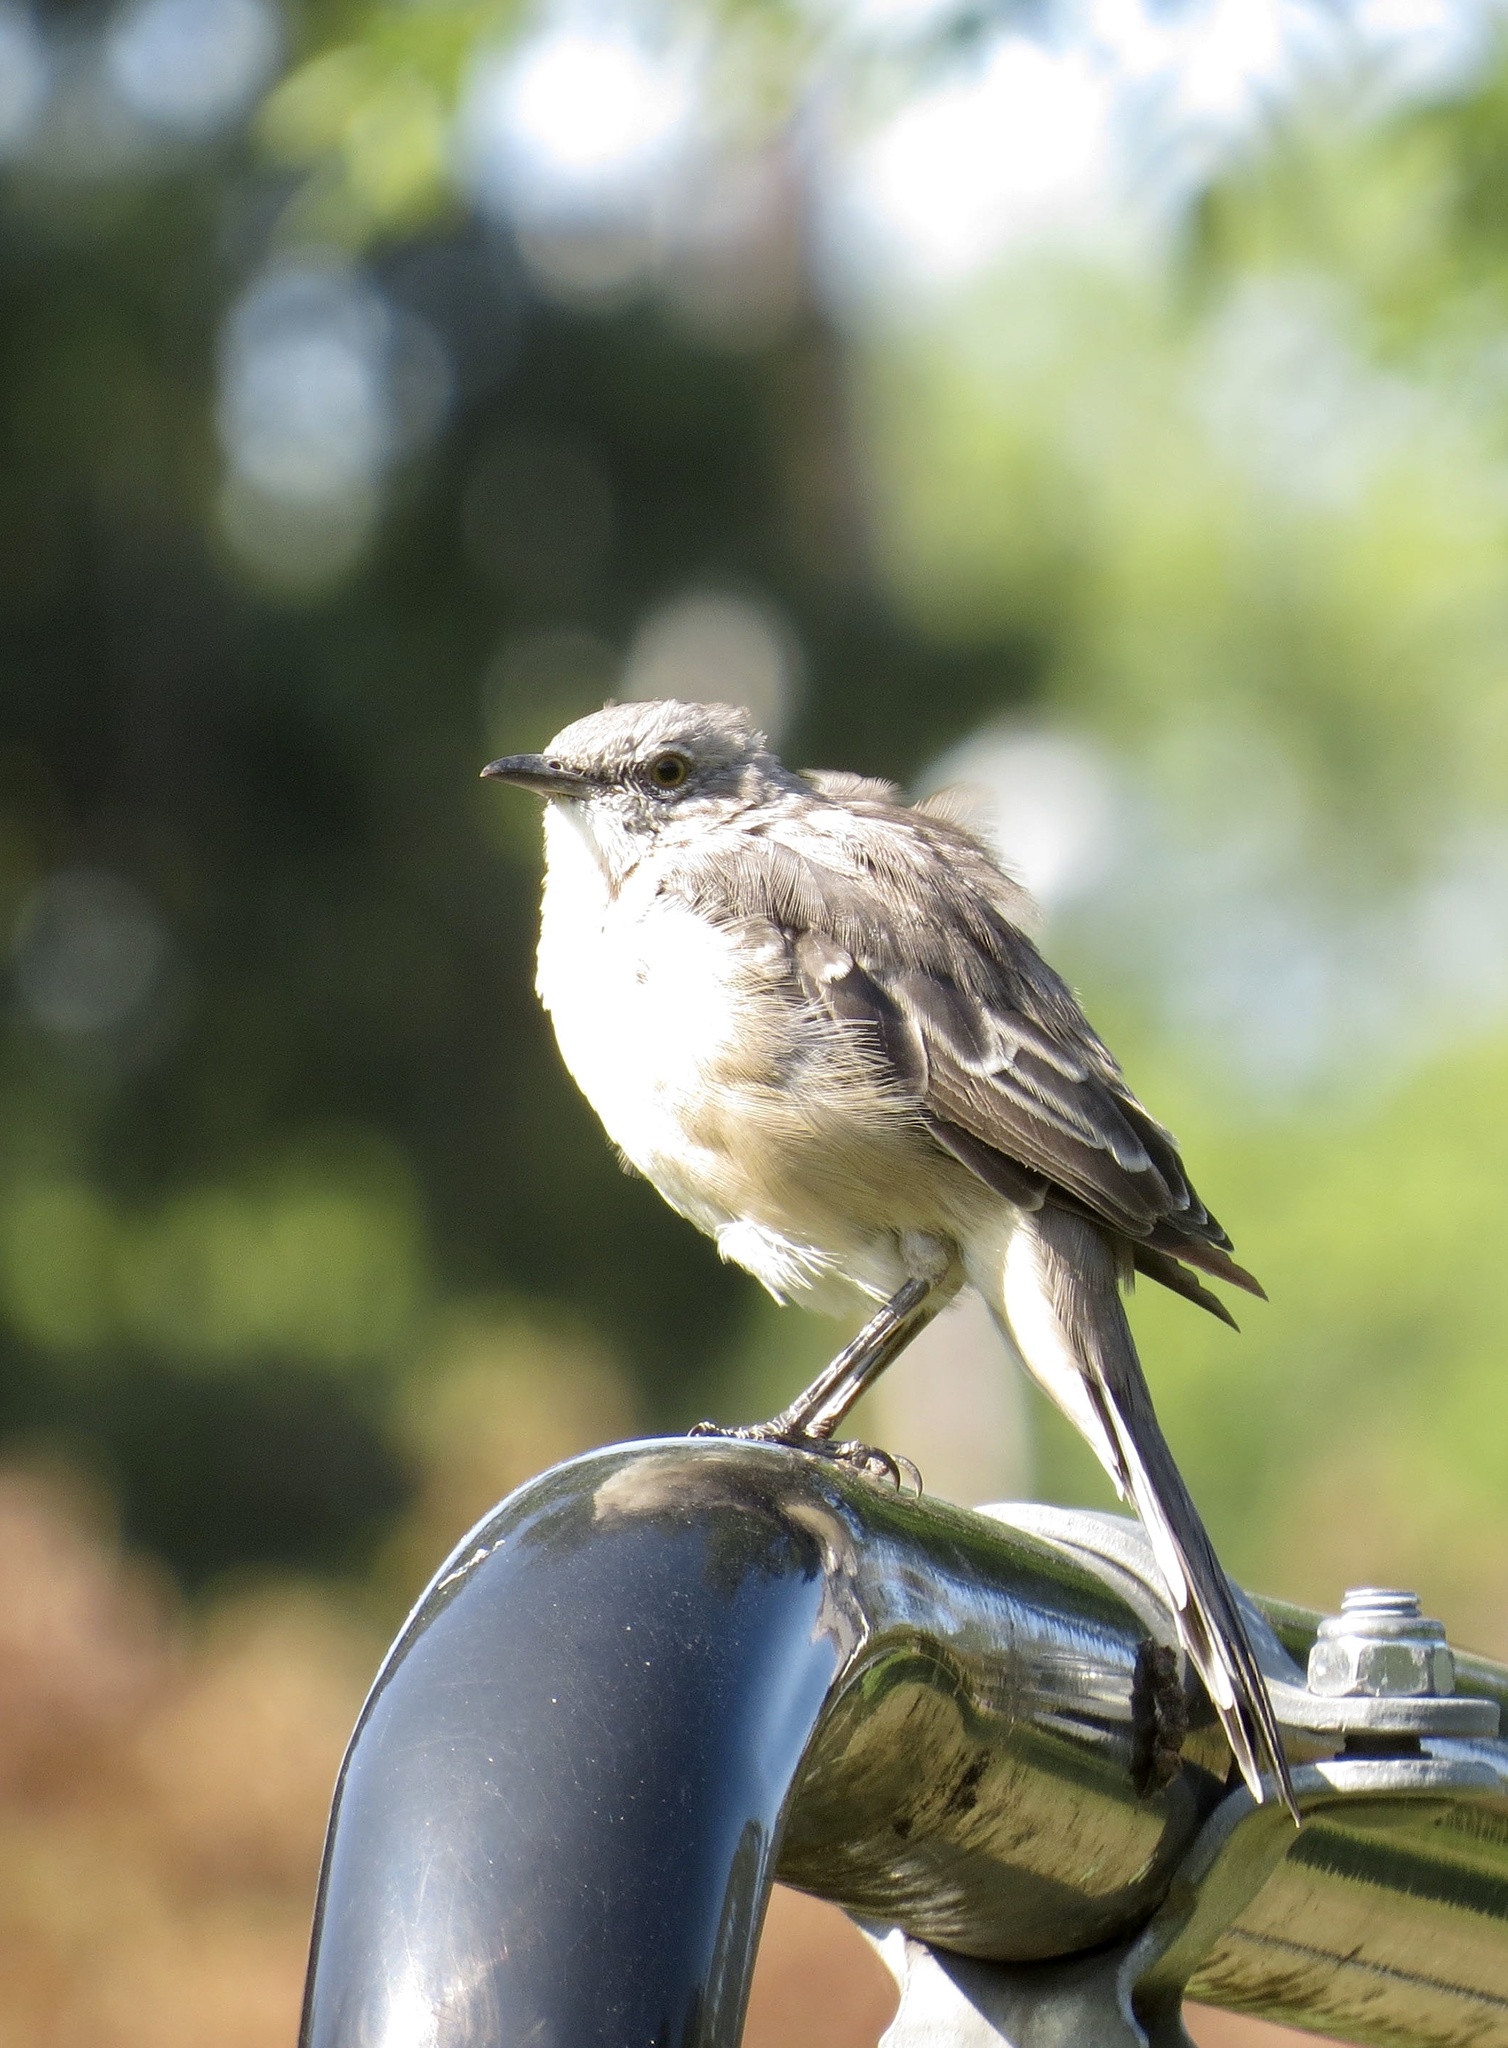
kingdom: Animalia
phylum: Chordata
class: Aves
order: Passeriformes
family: Mimidae
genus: Mimus
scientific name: Mimus polyglottos
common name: Northern mockingbird
